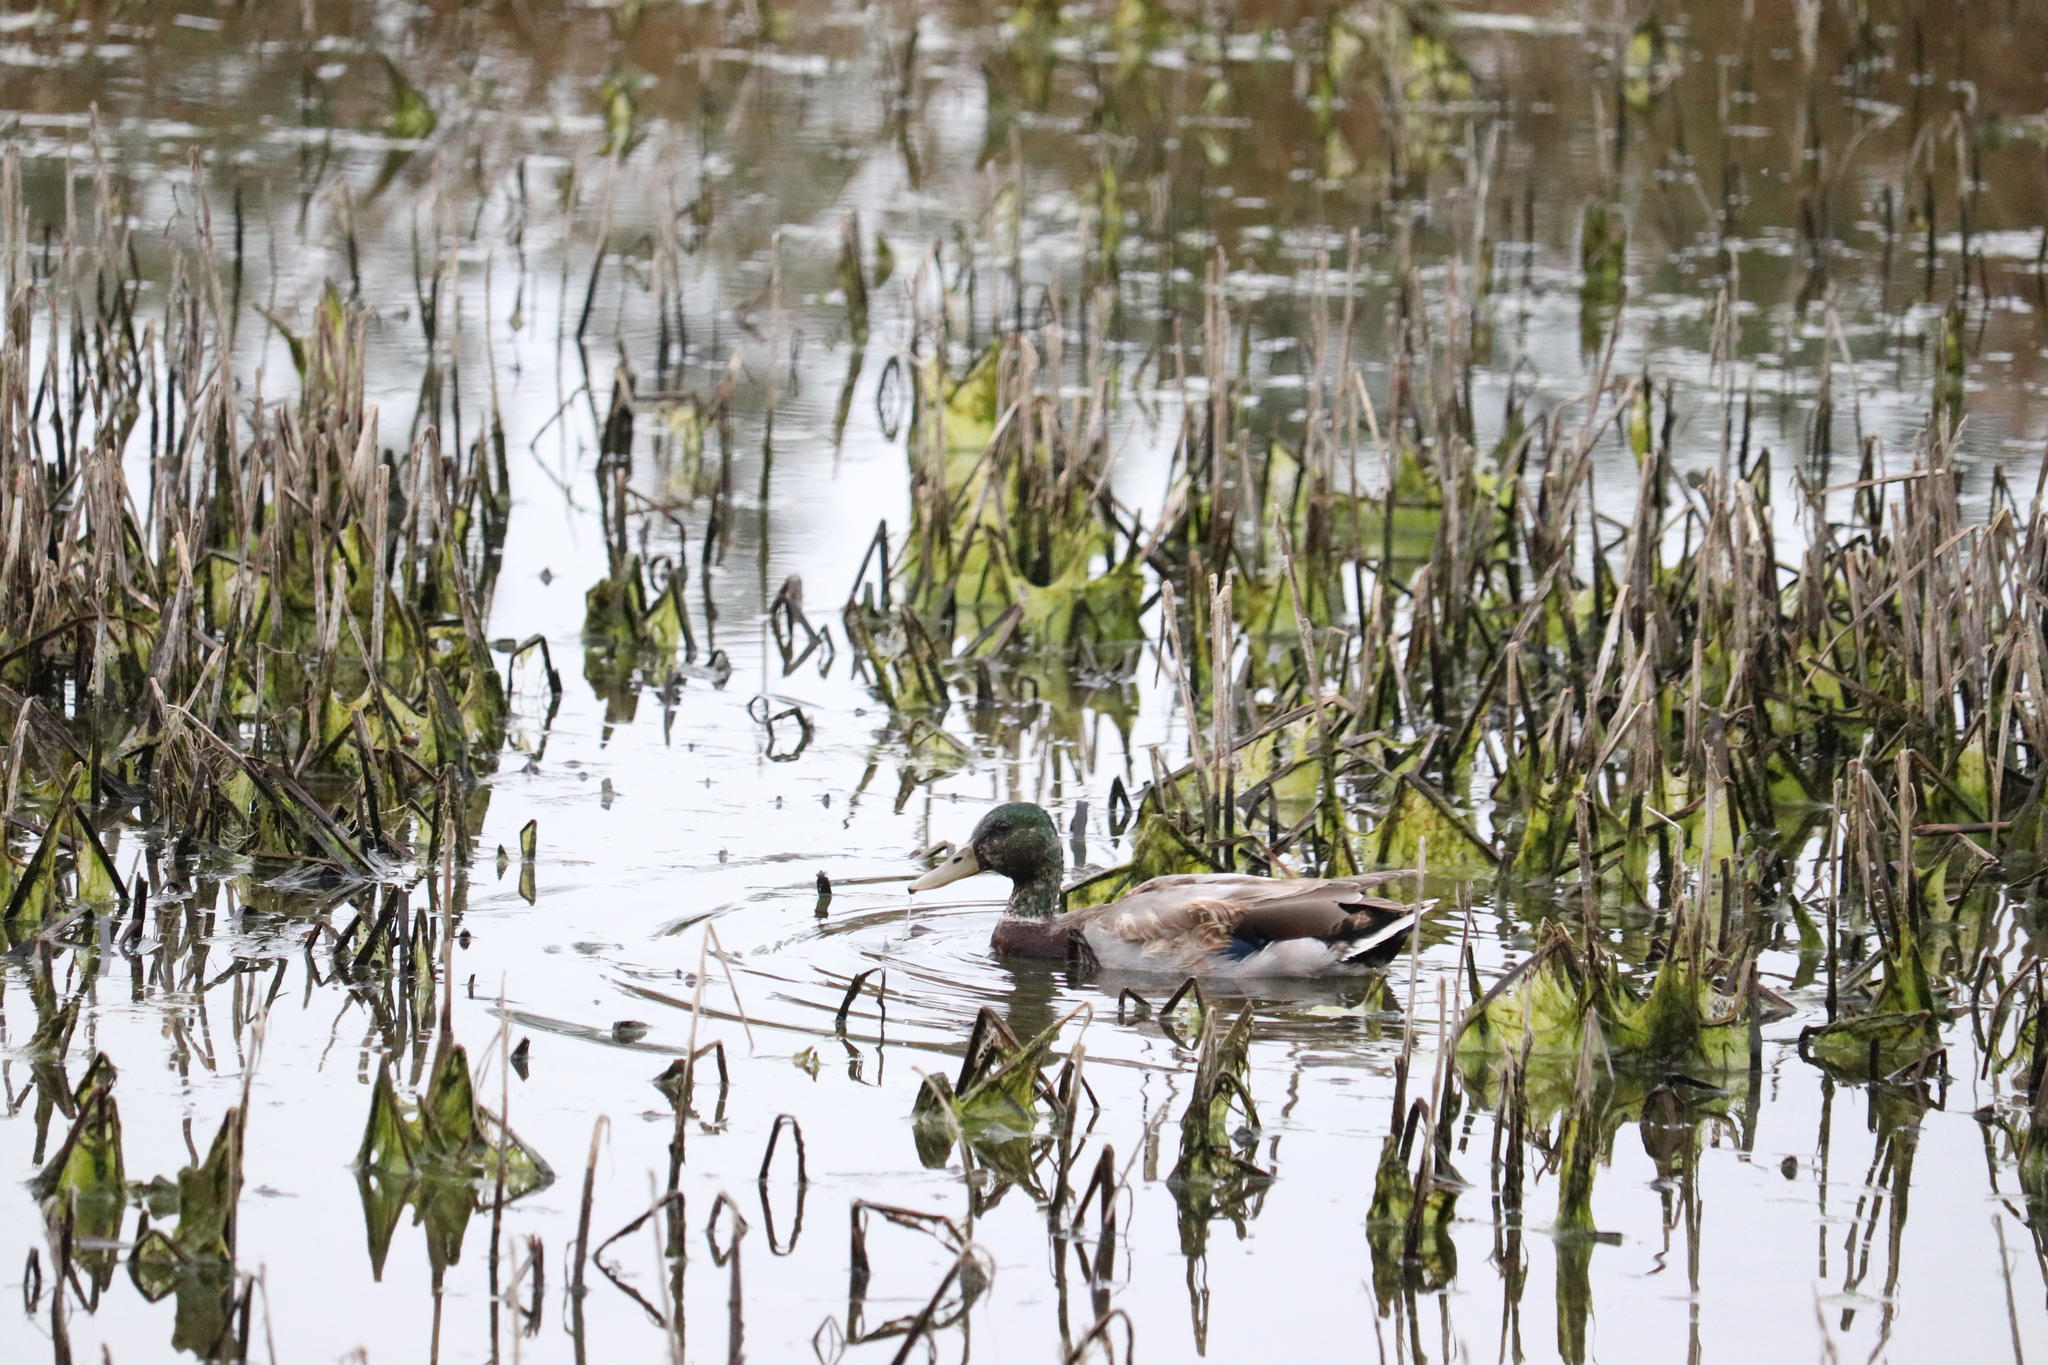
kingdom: Animalia
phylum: Chordata
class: Aves
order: Anseriformes
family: Anatidae
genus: Anas
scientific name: Anas platyrhynchos
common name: Mallard
